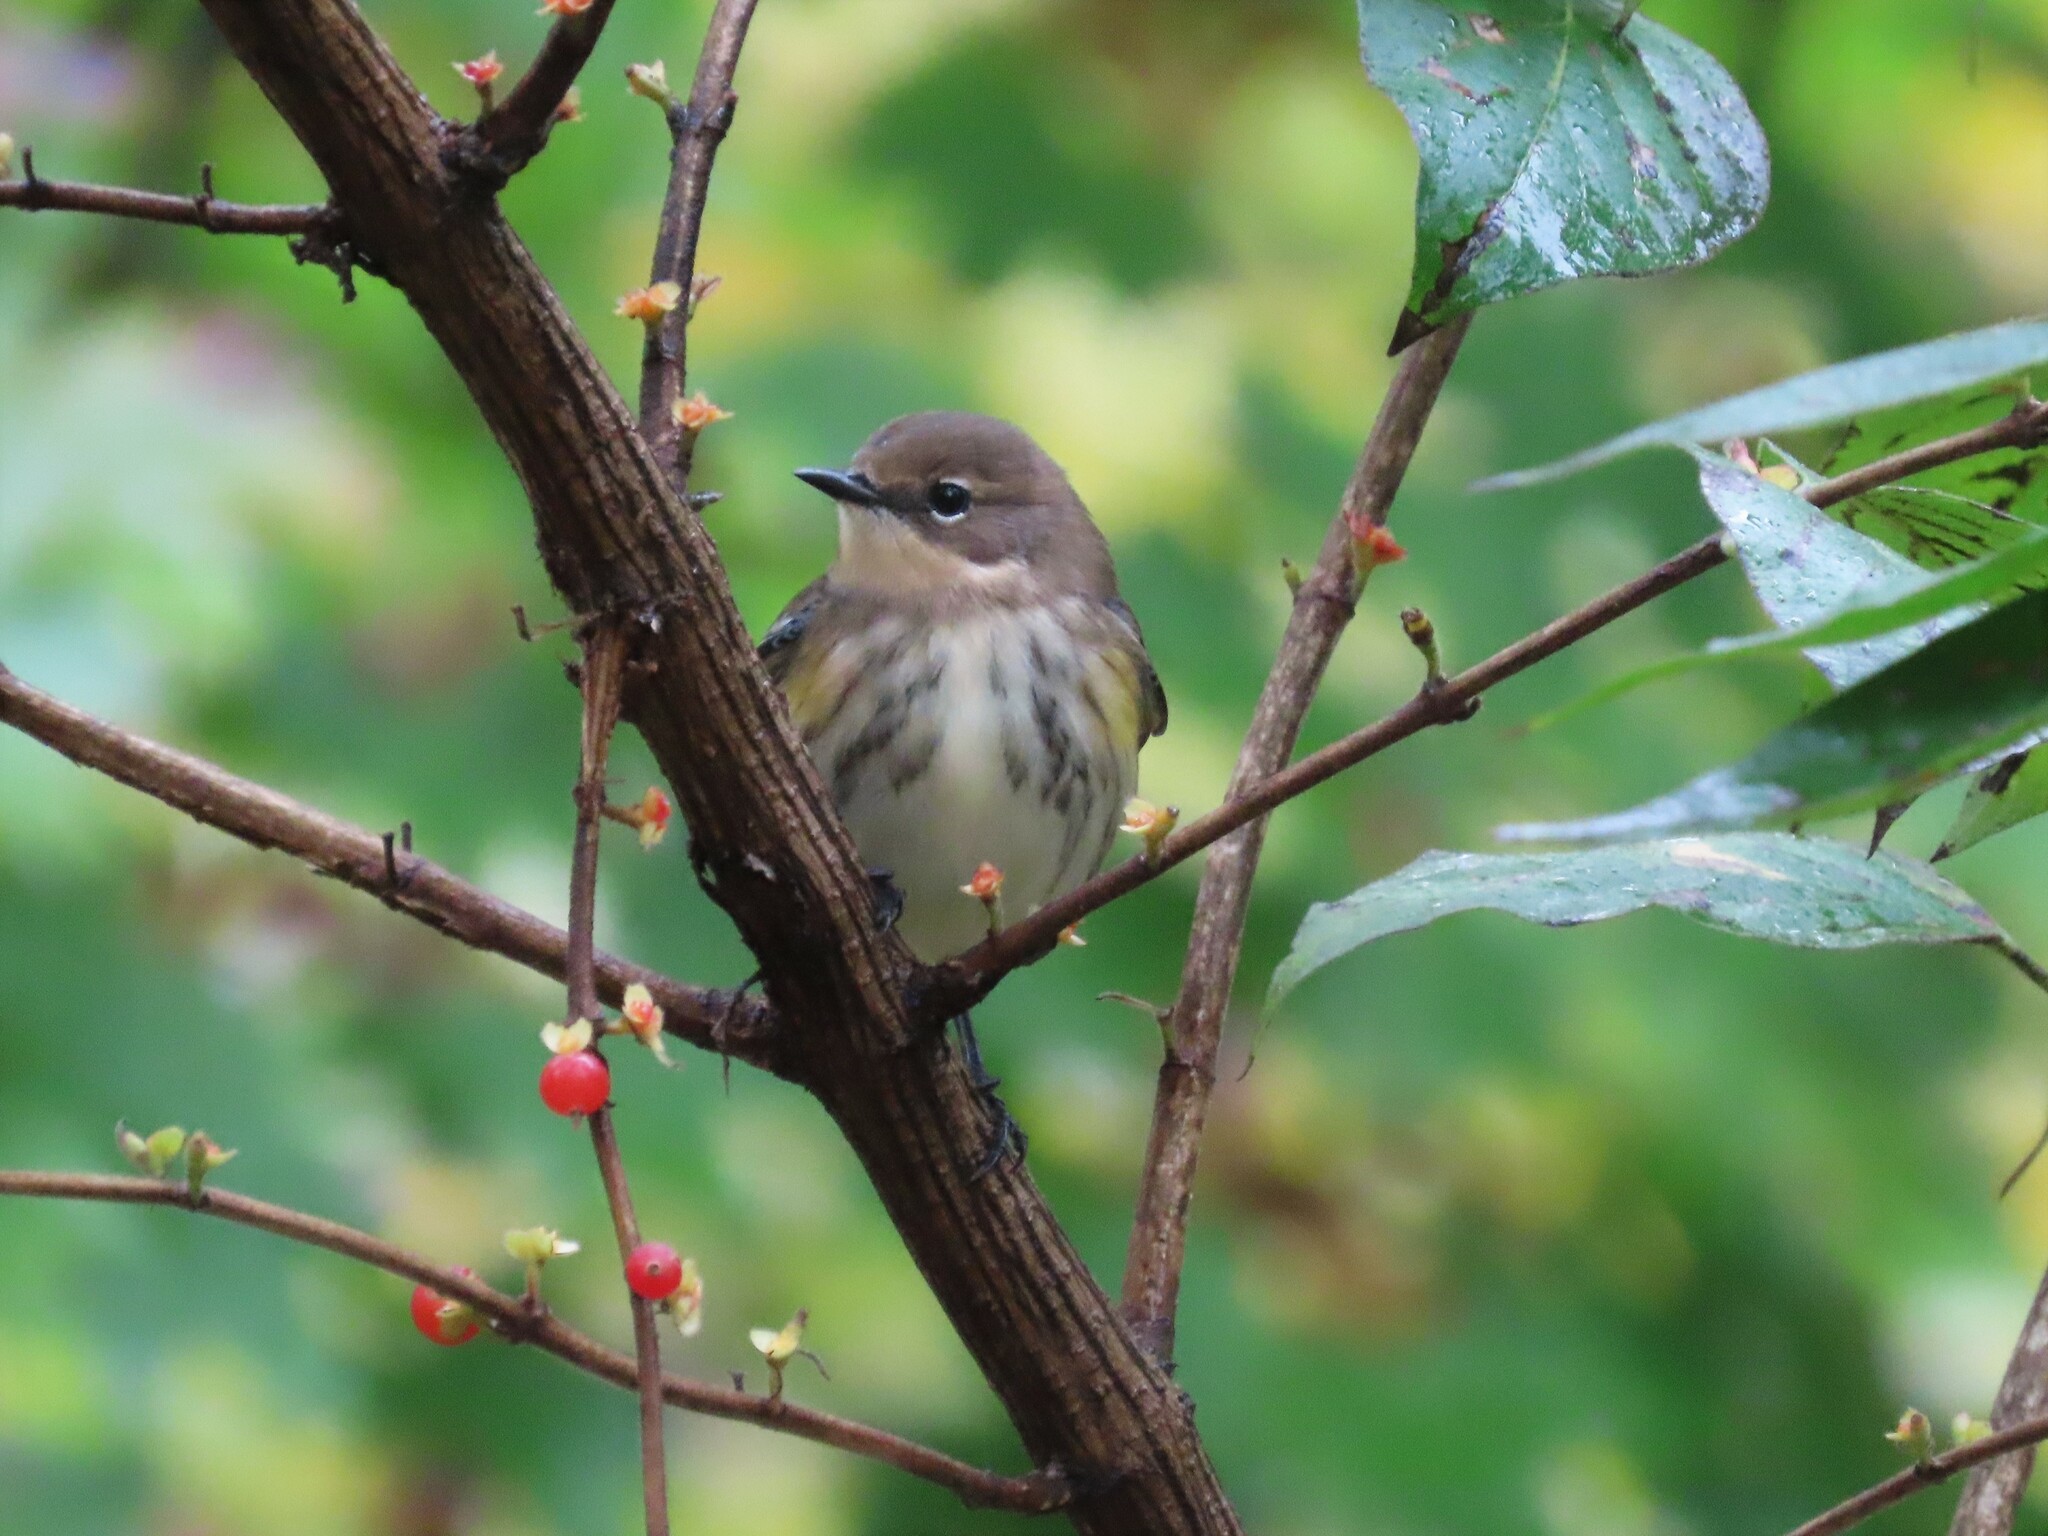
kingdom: Animalia
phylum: Chordata
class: Aves
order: Passeriformes
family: Parulidae
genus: Setophaga
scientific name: Setophaga coronata
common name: Myrtle warbler
